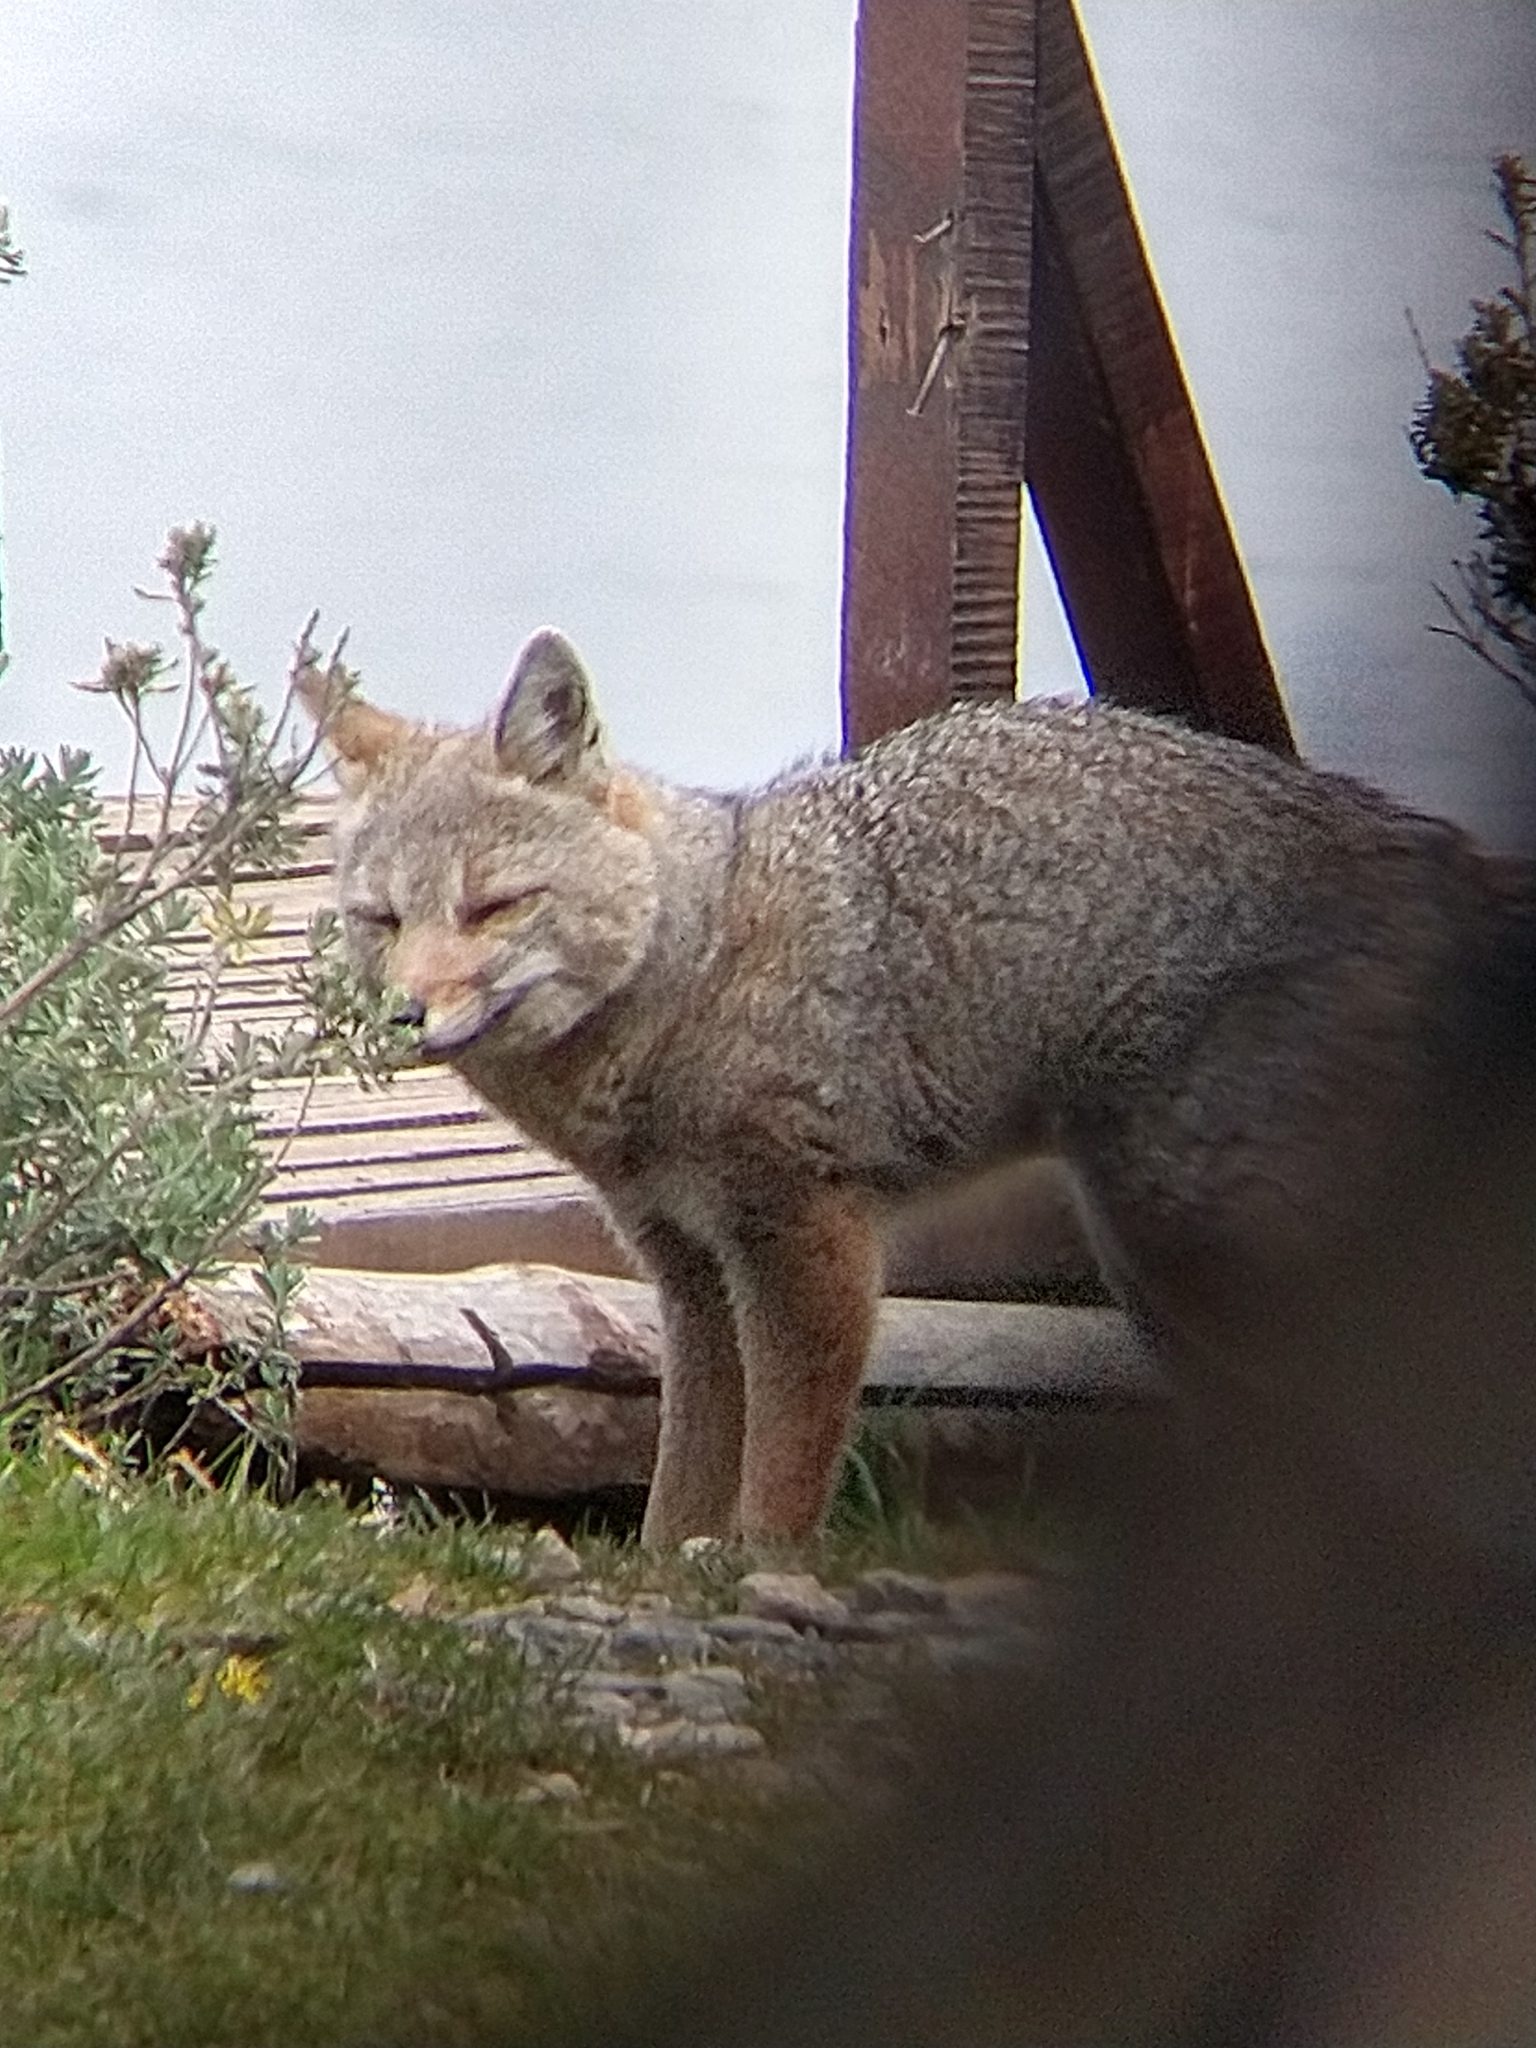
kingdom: Animalia
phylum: Chordata
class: Mammalia
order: Carnivora
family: Canidae
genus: Lycalopex
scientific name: Lycalopex gymnocercus
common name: Pampas fox
